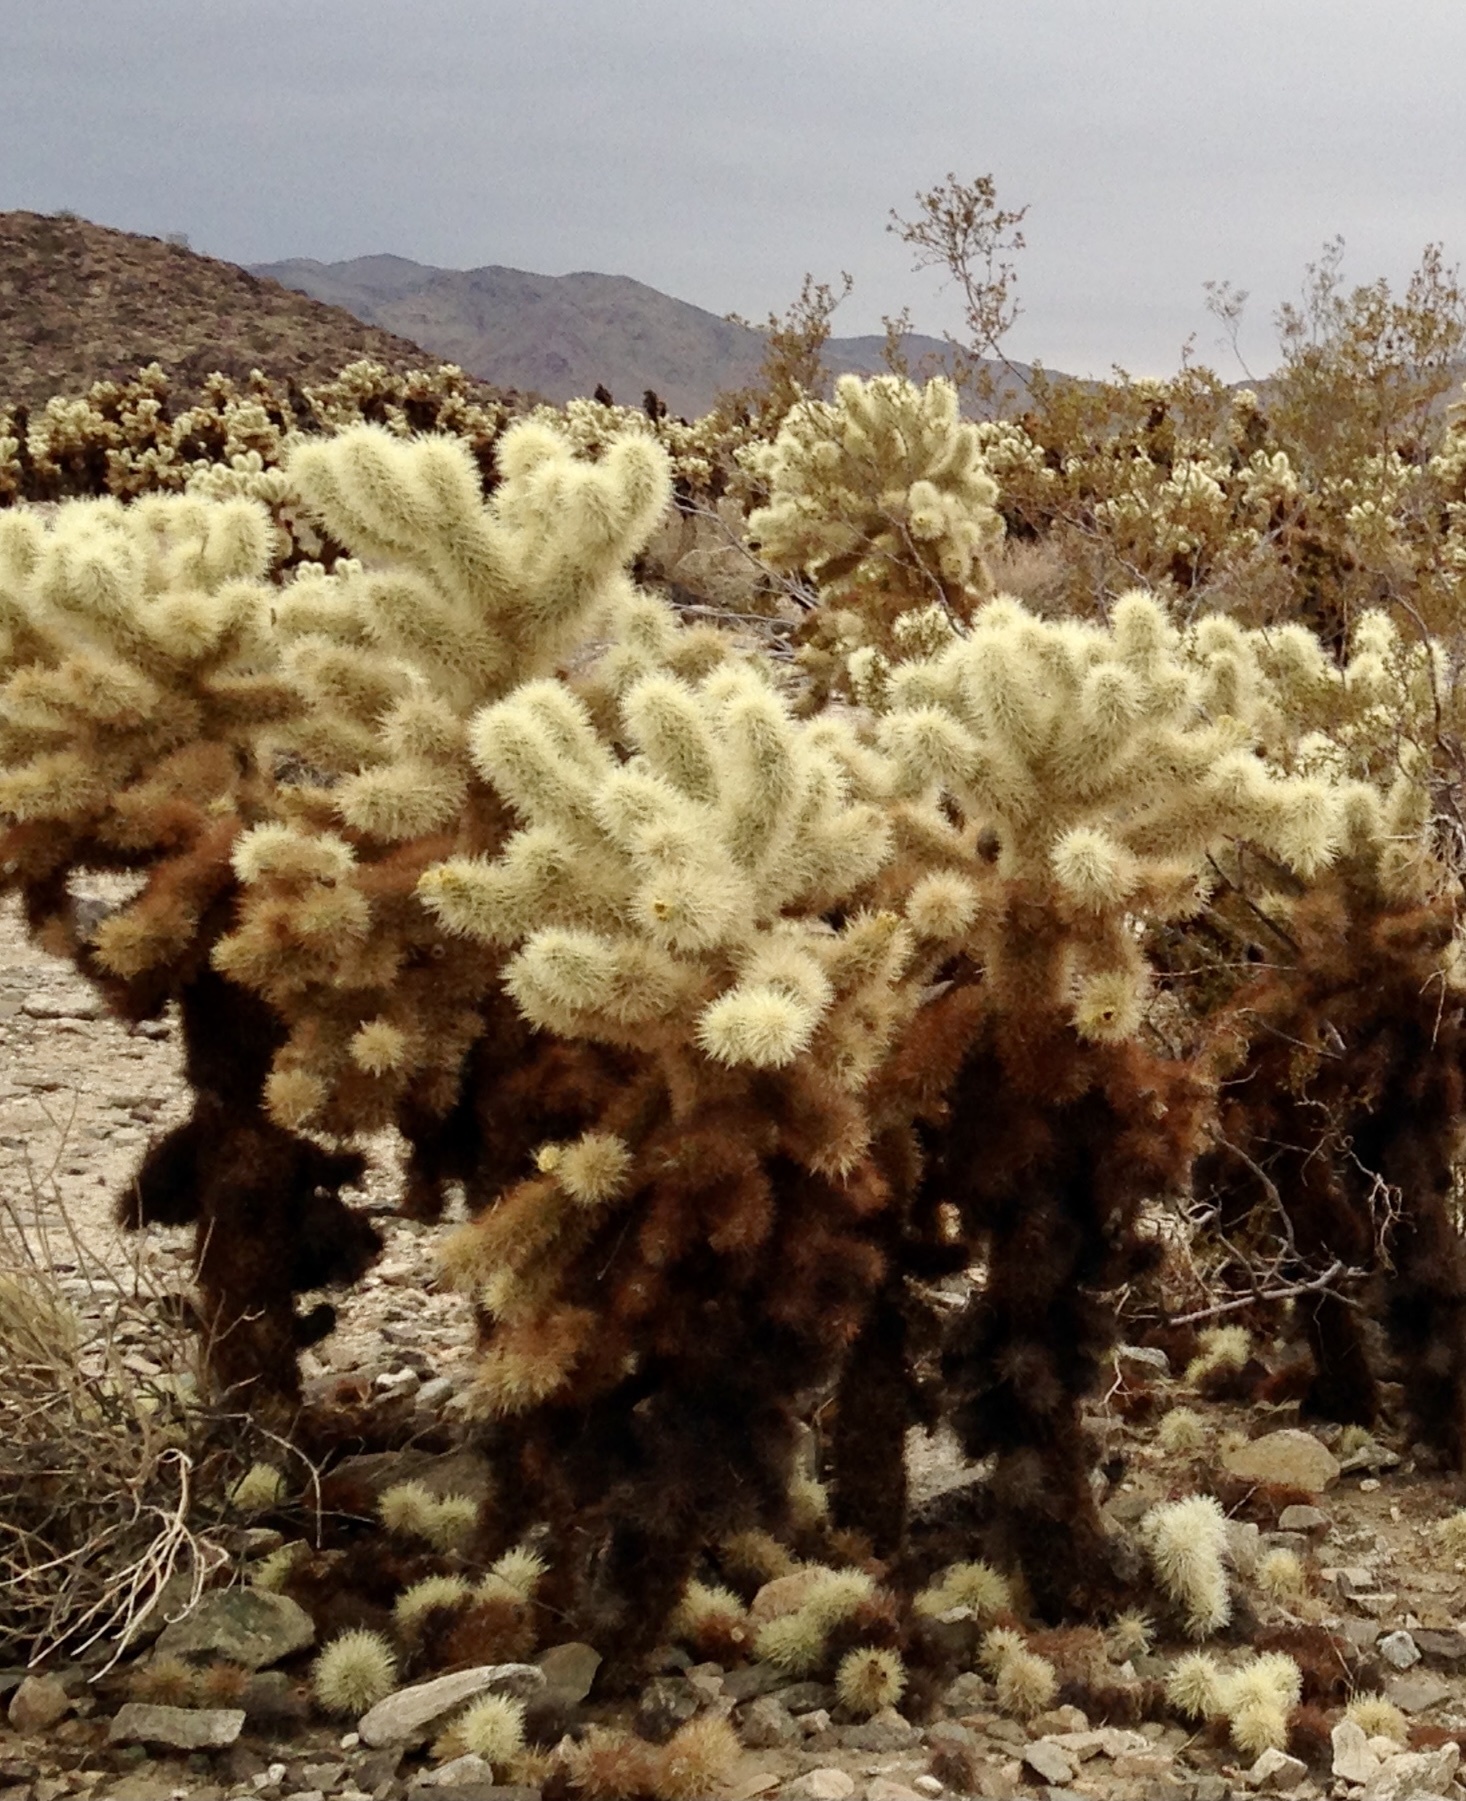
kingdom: Plantae
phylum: Tracheophyta
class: Magnoliopsida
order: Caryophyllales
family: Cactaceae
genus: Cylindropuntia
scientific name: Cylindropuntia fosbergii
